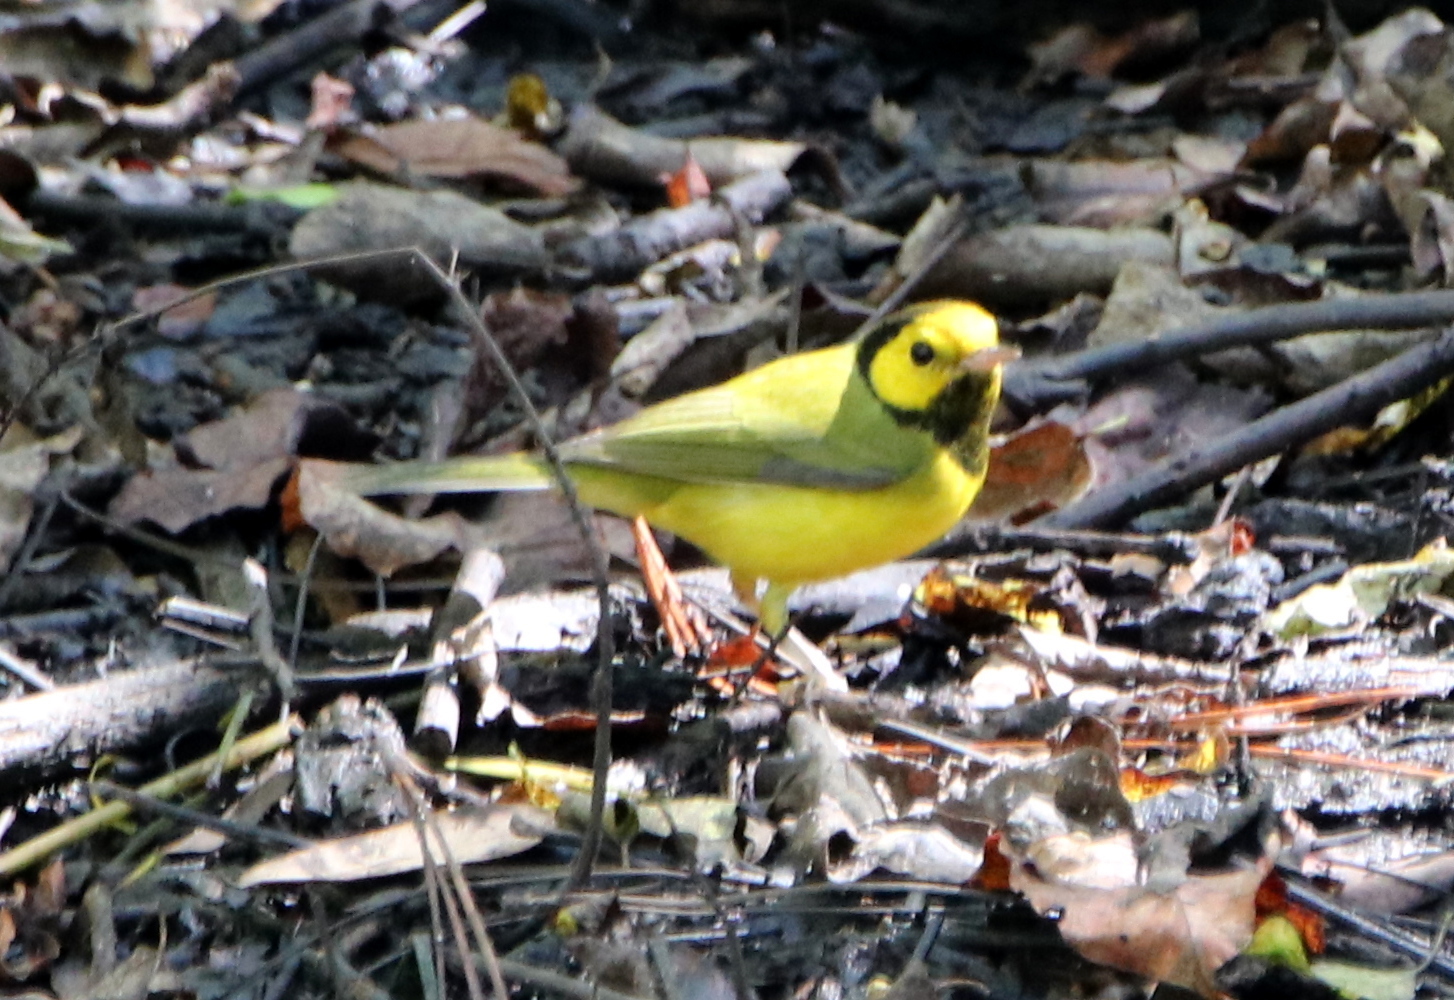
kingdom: Animalia
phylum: Chordata
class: Aves
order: Passeriformes
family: Parulidae
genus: Setophaga
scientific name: Setophaga citrina
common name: Hooded warbler
